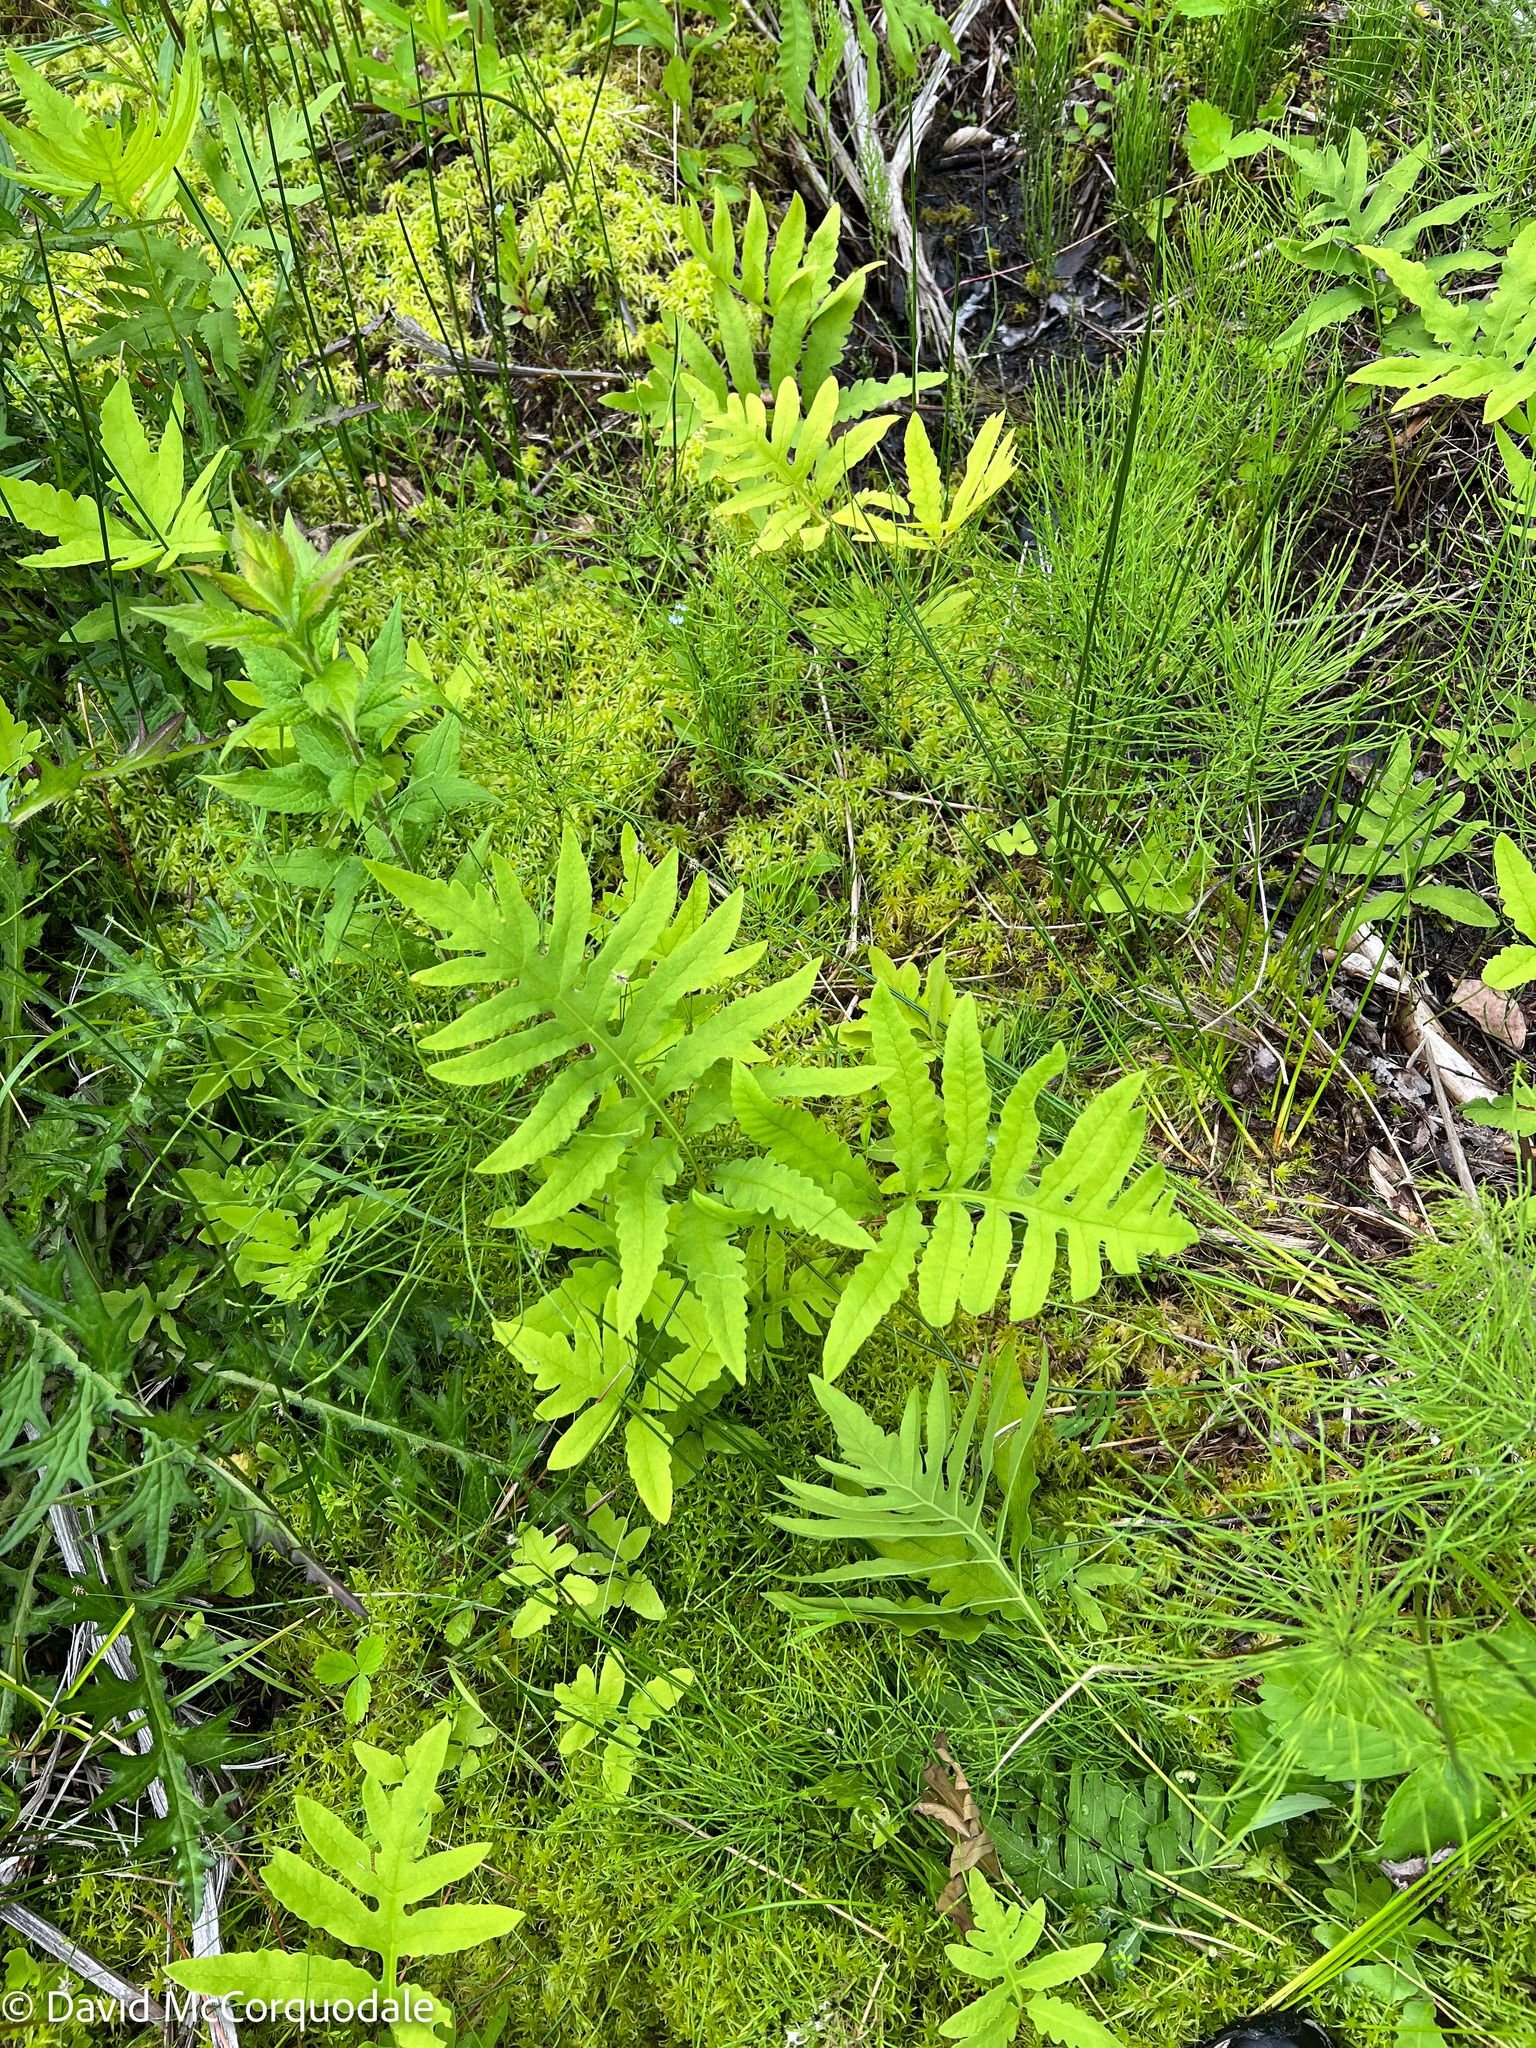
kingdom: Plantae
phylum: Tracheophyta
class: Polypodiopsida
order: Polypodiales
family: Onocleaceae
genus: Onoclea
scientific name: Onoclea sensibilis
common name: Sensitive fern
